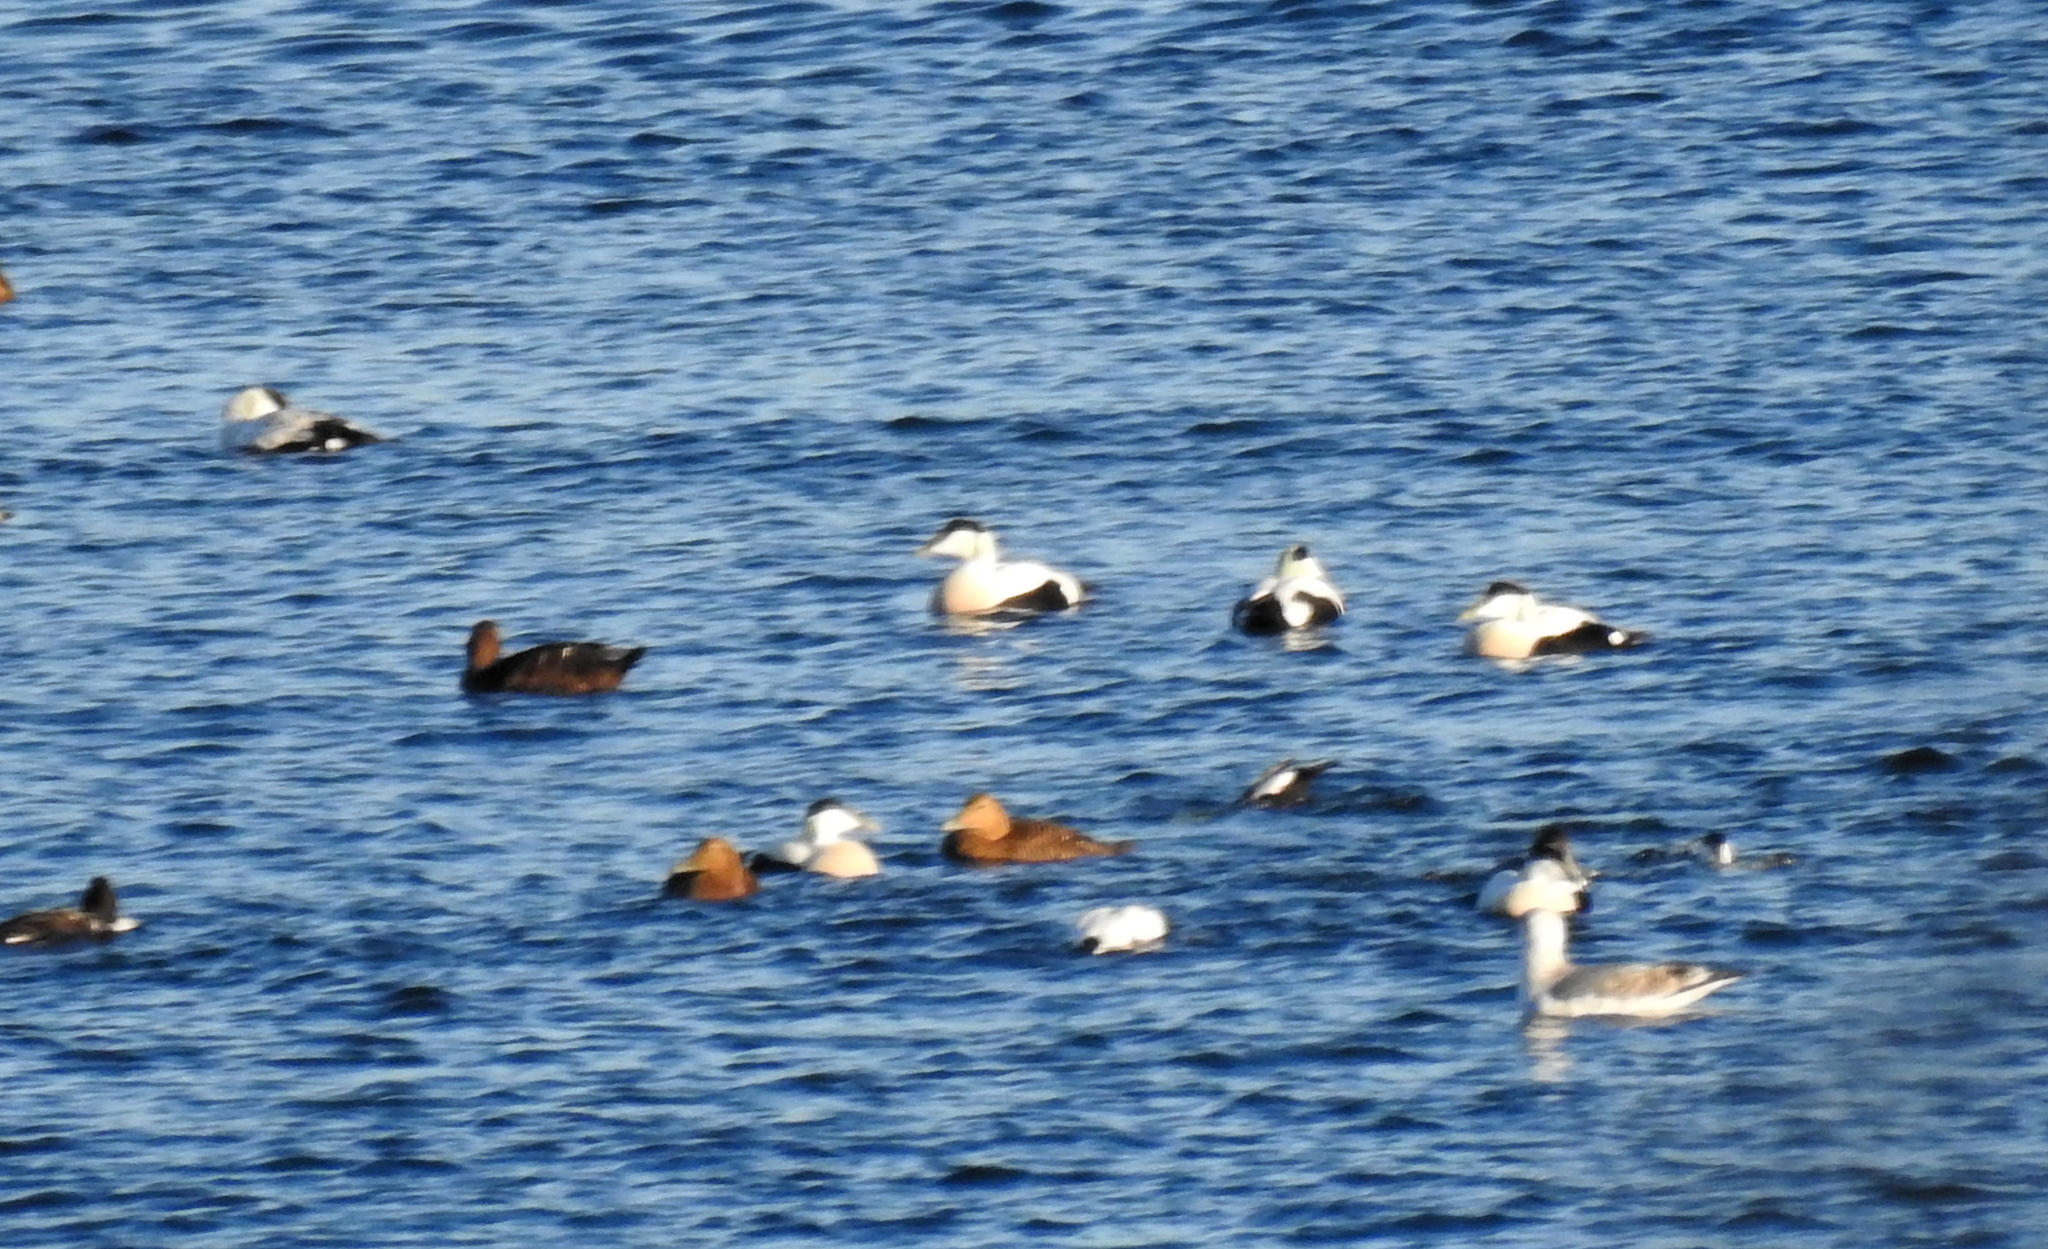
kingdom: Animalia
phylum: Chordata
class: Aves
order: Anseriformes
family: Anatidae
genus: Somateria
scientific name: Somateria mollissima
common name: Common eider
